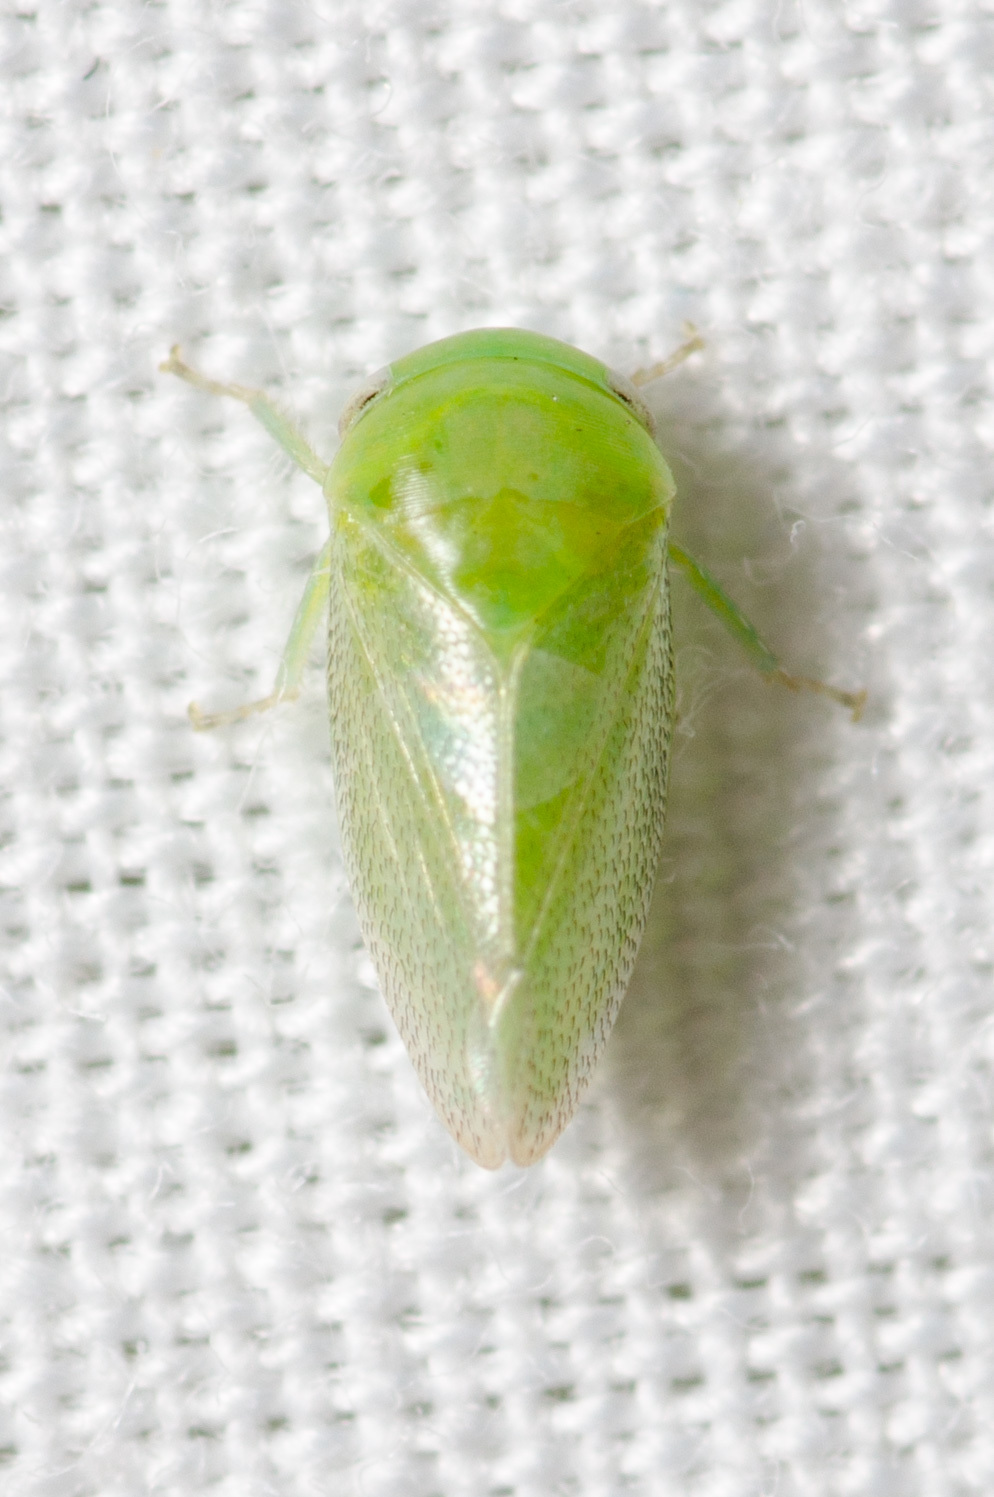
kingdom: Animalia
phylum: Arthropoda
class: Insecta
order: Hemiptera
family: Cicadellidae
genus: Penestragania
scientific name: Penestragania robusta
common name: Robust leafhopper
